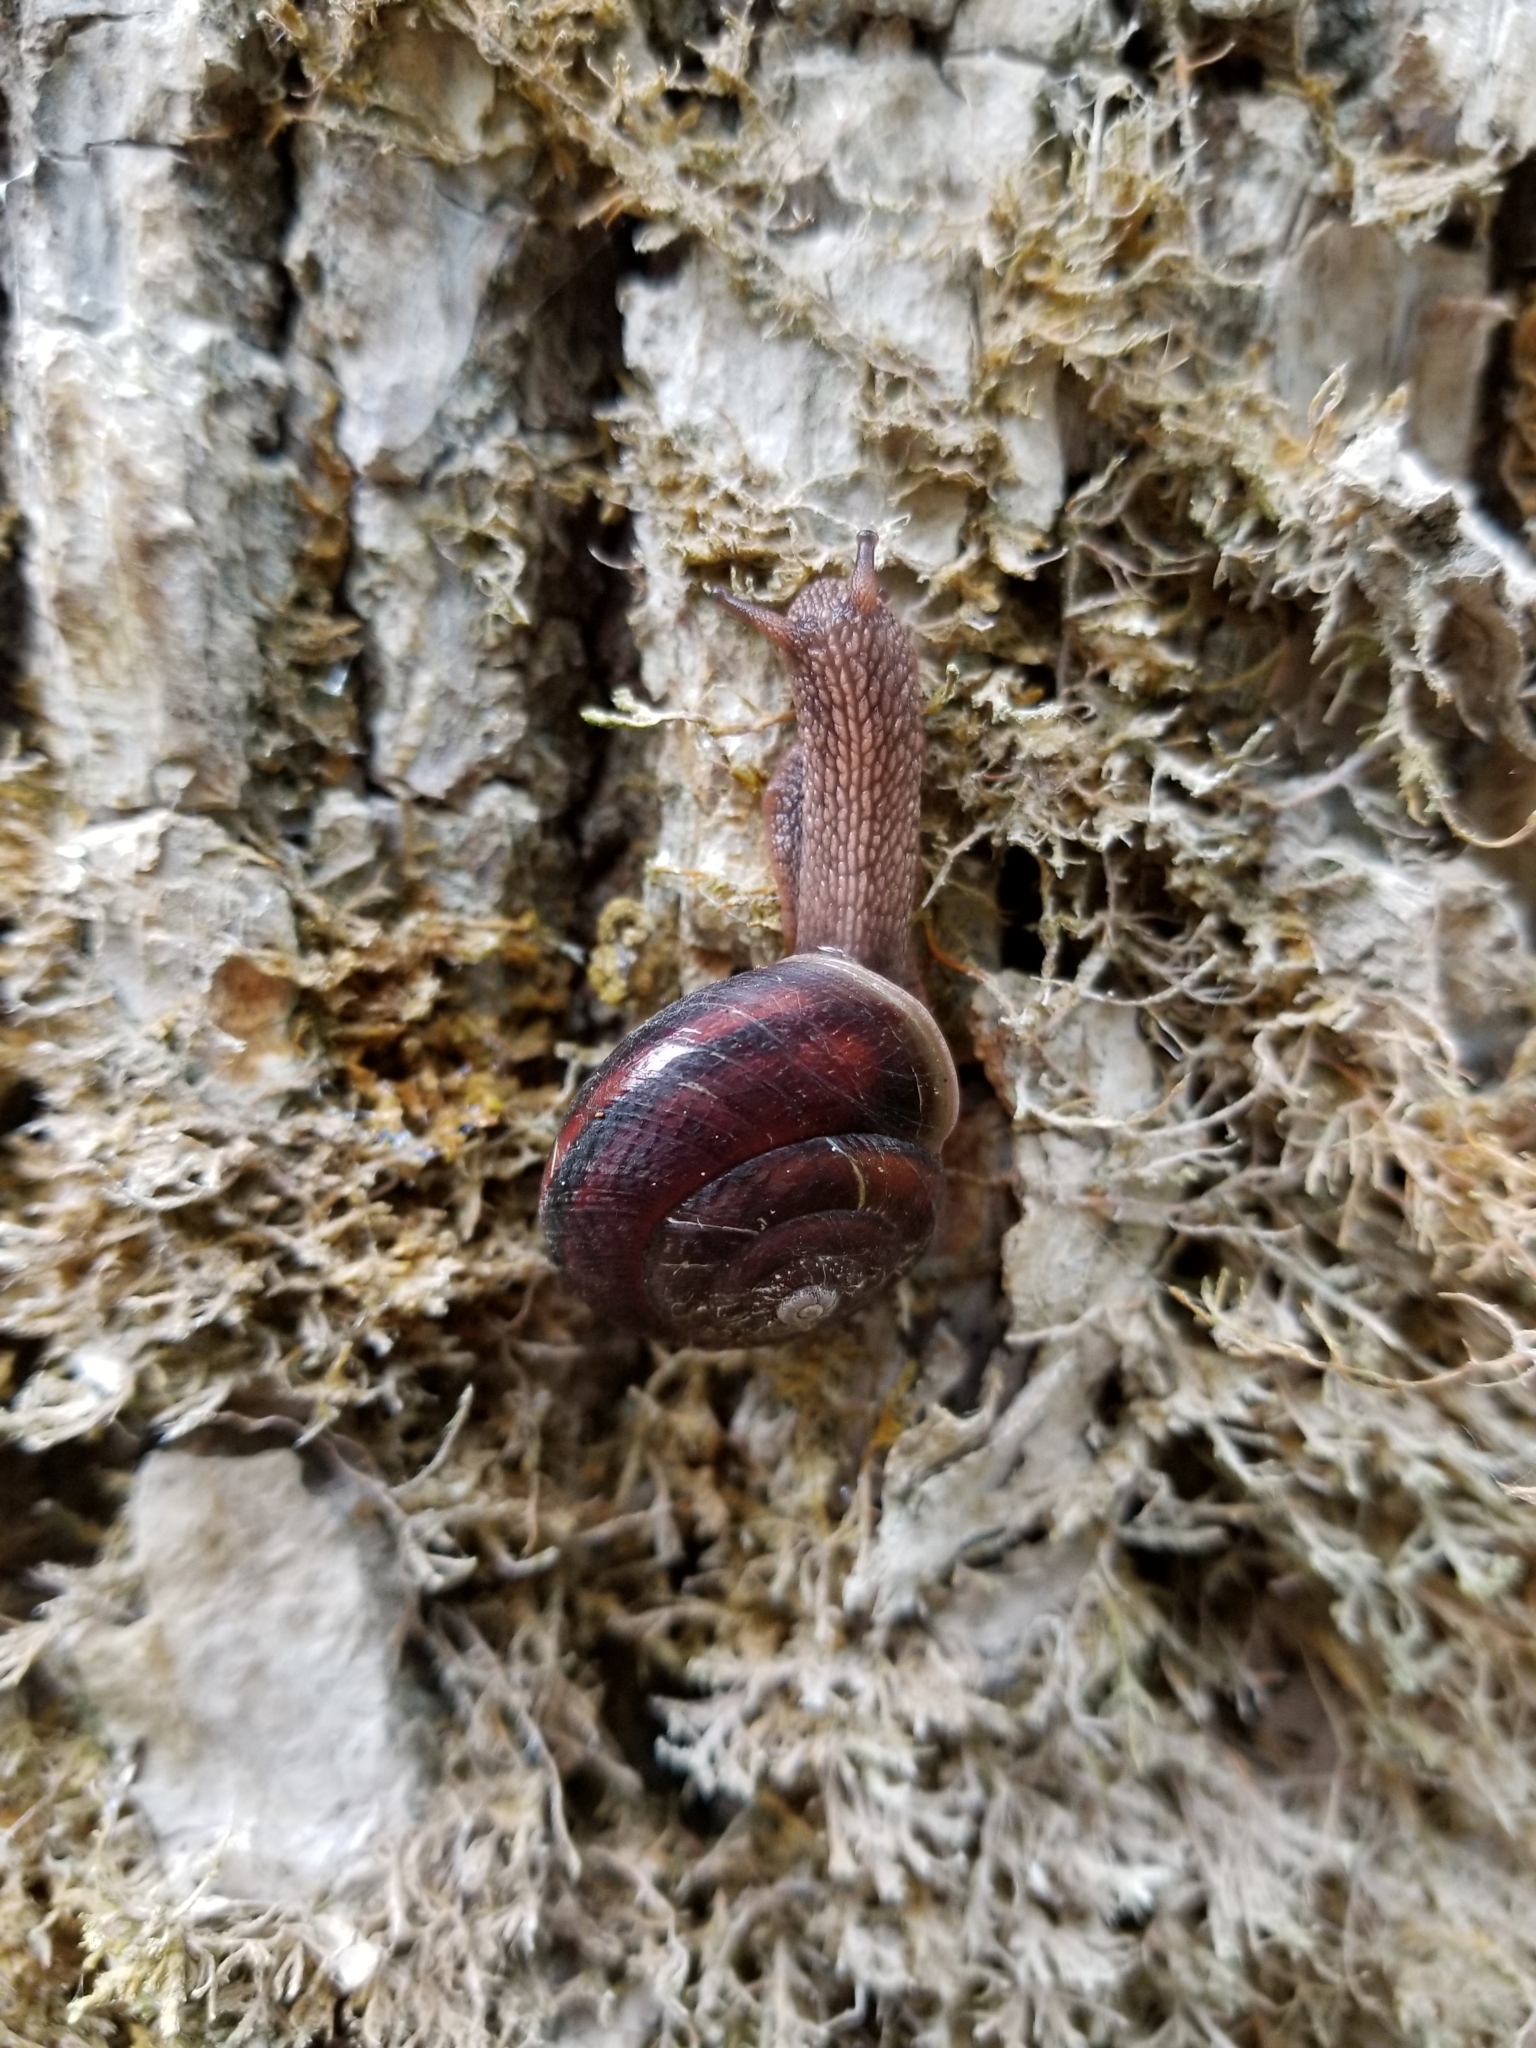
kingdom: Animalia
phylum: Mollusca
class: Gastropoda
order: Stylommatophora
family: Xanthonychidae
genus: Monadenia
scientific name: Monadenia fidelis
